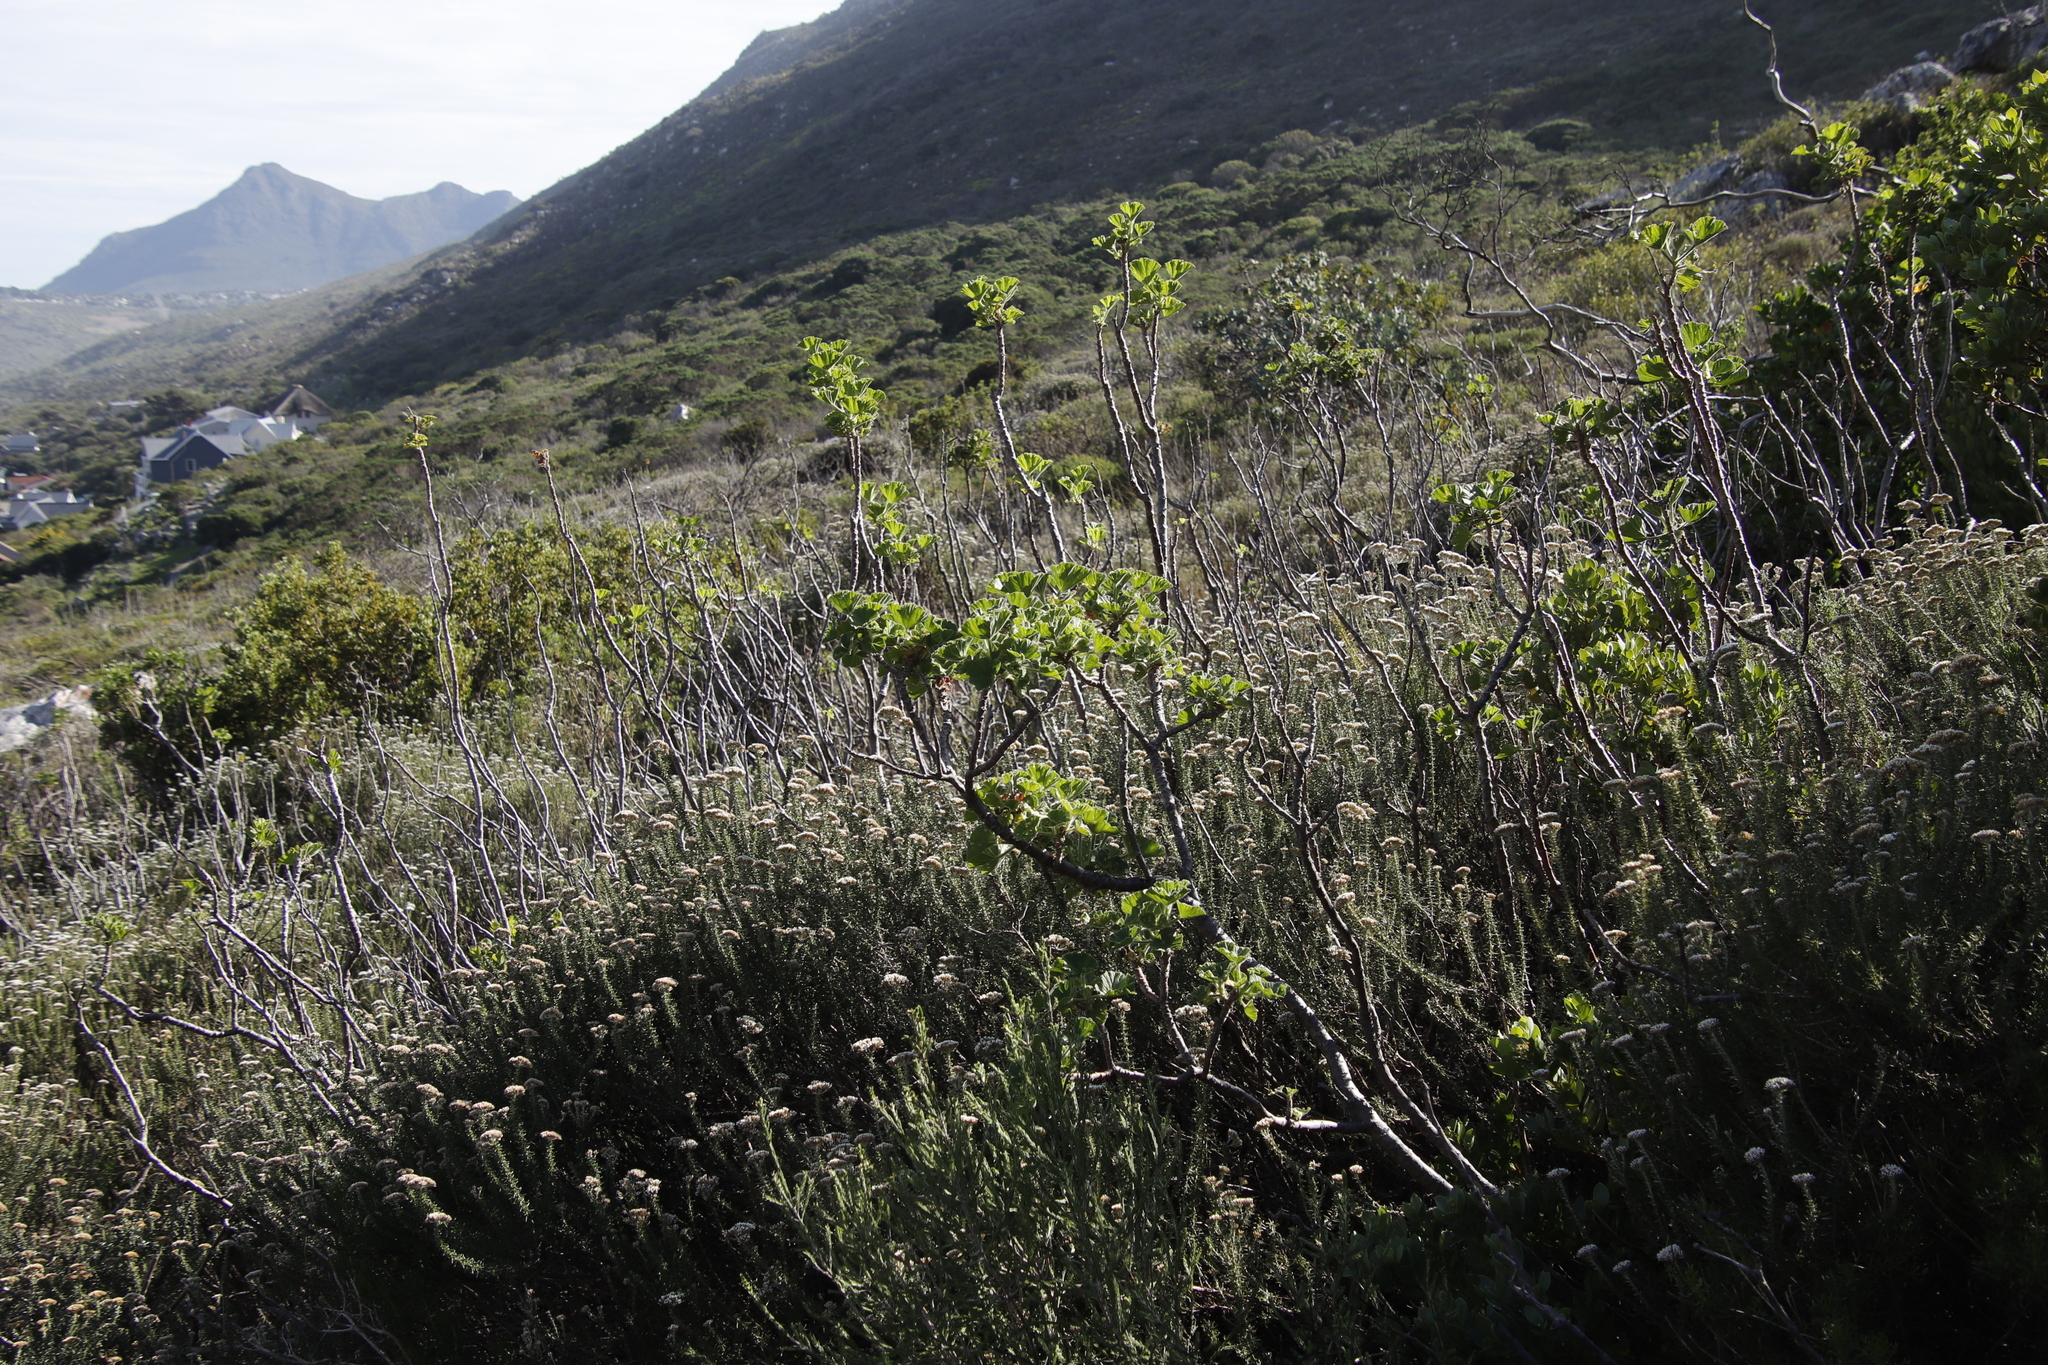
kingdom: Plantae
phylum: Tracheophyta
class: Magnoliopsida
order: Geraniales
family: Geraniaceae
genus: Pelargonium
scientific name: Pelargonium cucullatum
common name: Tree pelargonium
